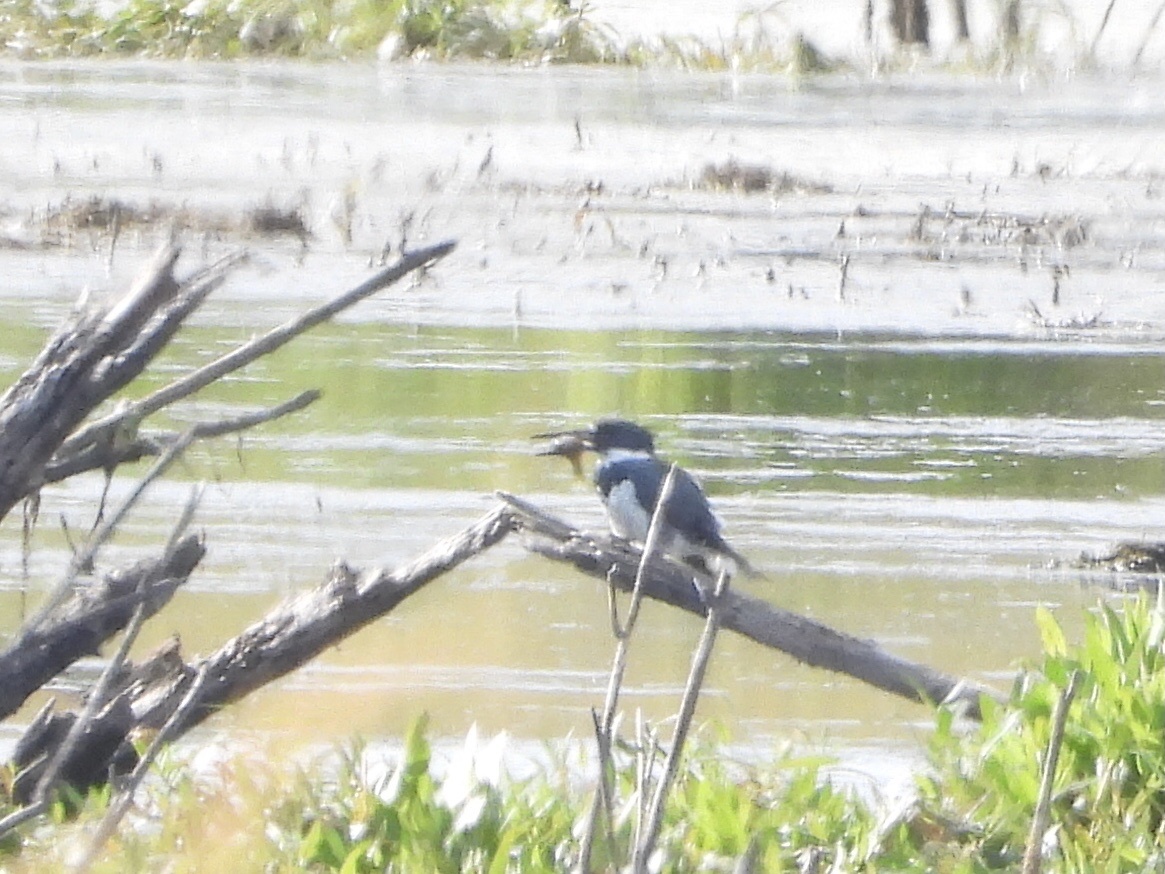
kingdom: Animalia
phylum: Chordata
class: Aves
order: Coraciiformes
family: Alcedinidae
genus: Megaceryle
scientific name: Megaceryle alcyon
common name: Belted kingfisher
